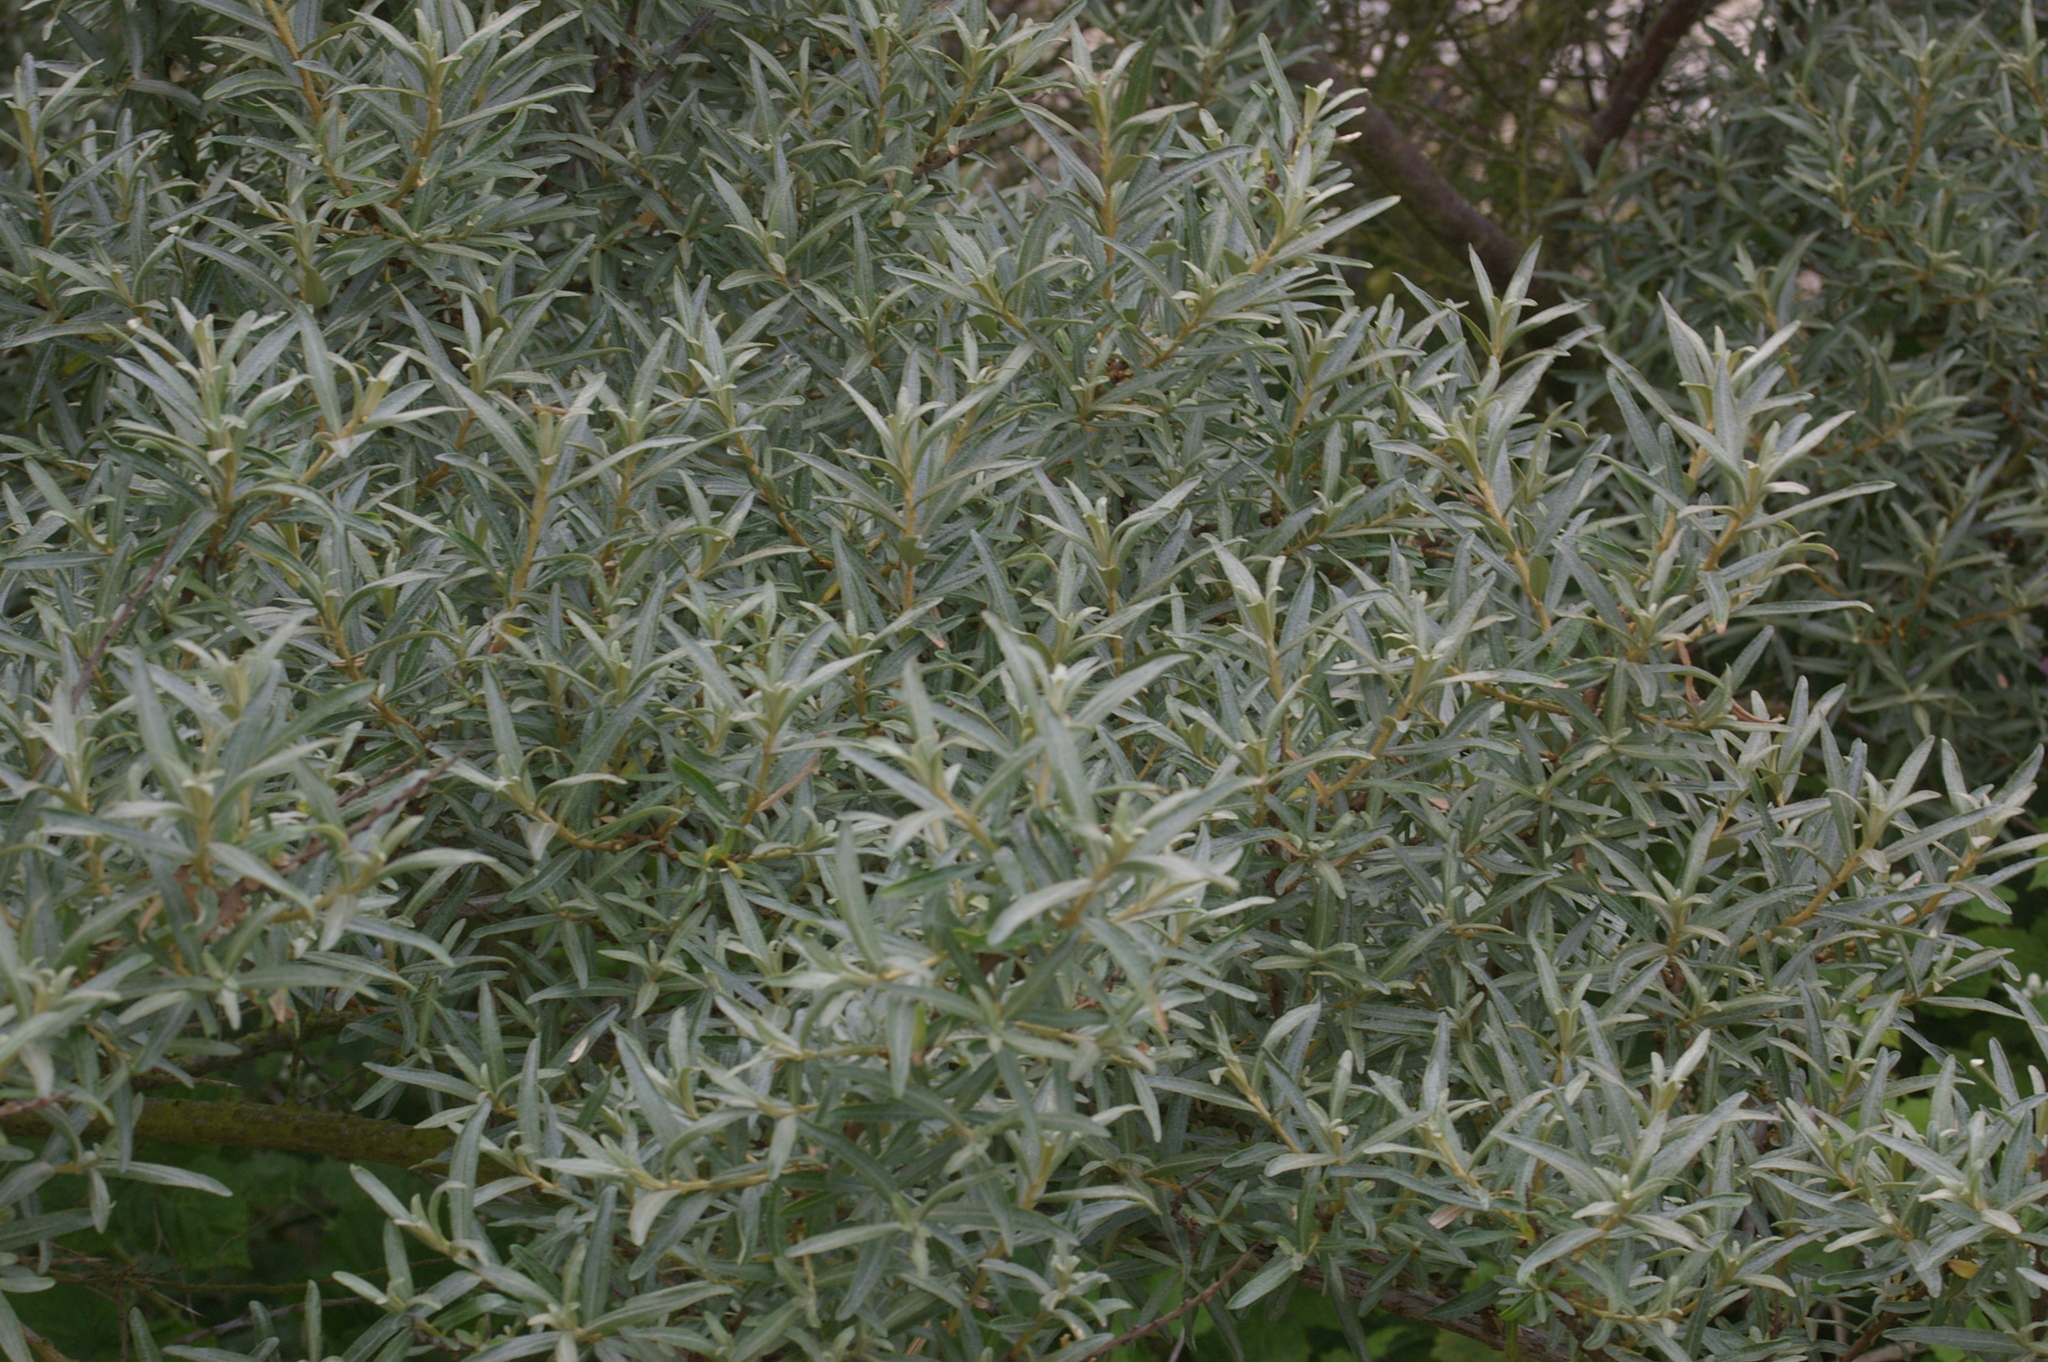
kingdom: Plantae
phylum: Tracheophyta
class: Magnoliopsida
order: Rosales
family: Elaeagnaceae
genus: Hippophae
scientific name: Hippophae rhamnoides
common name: Sea-buckthorn
